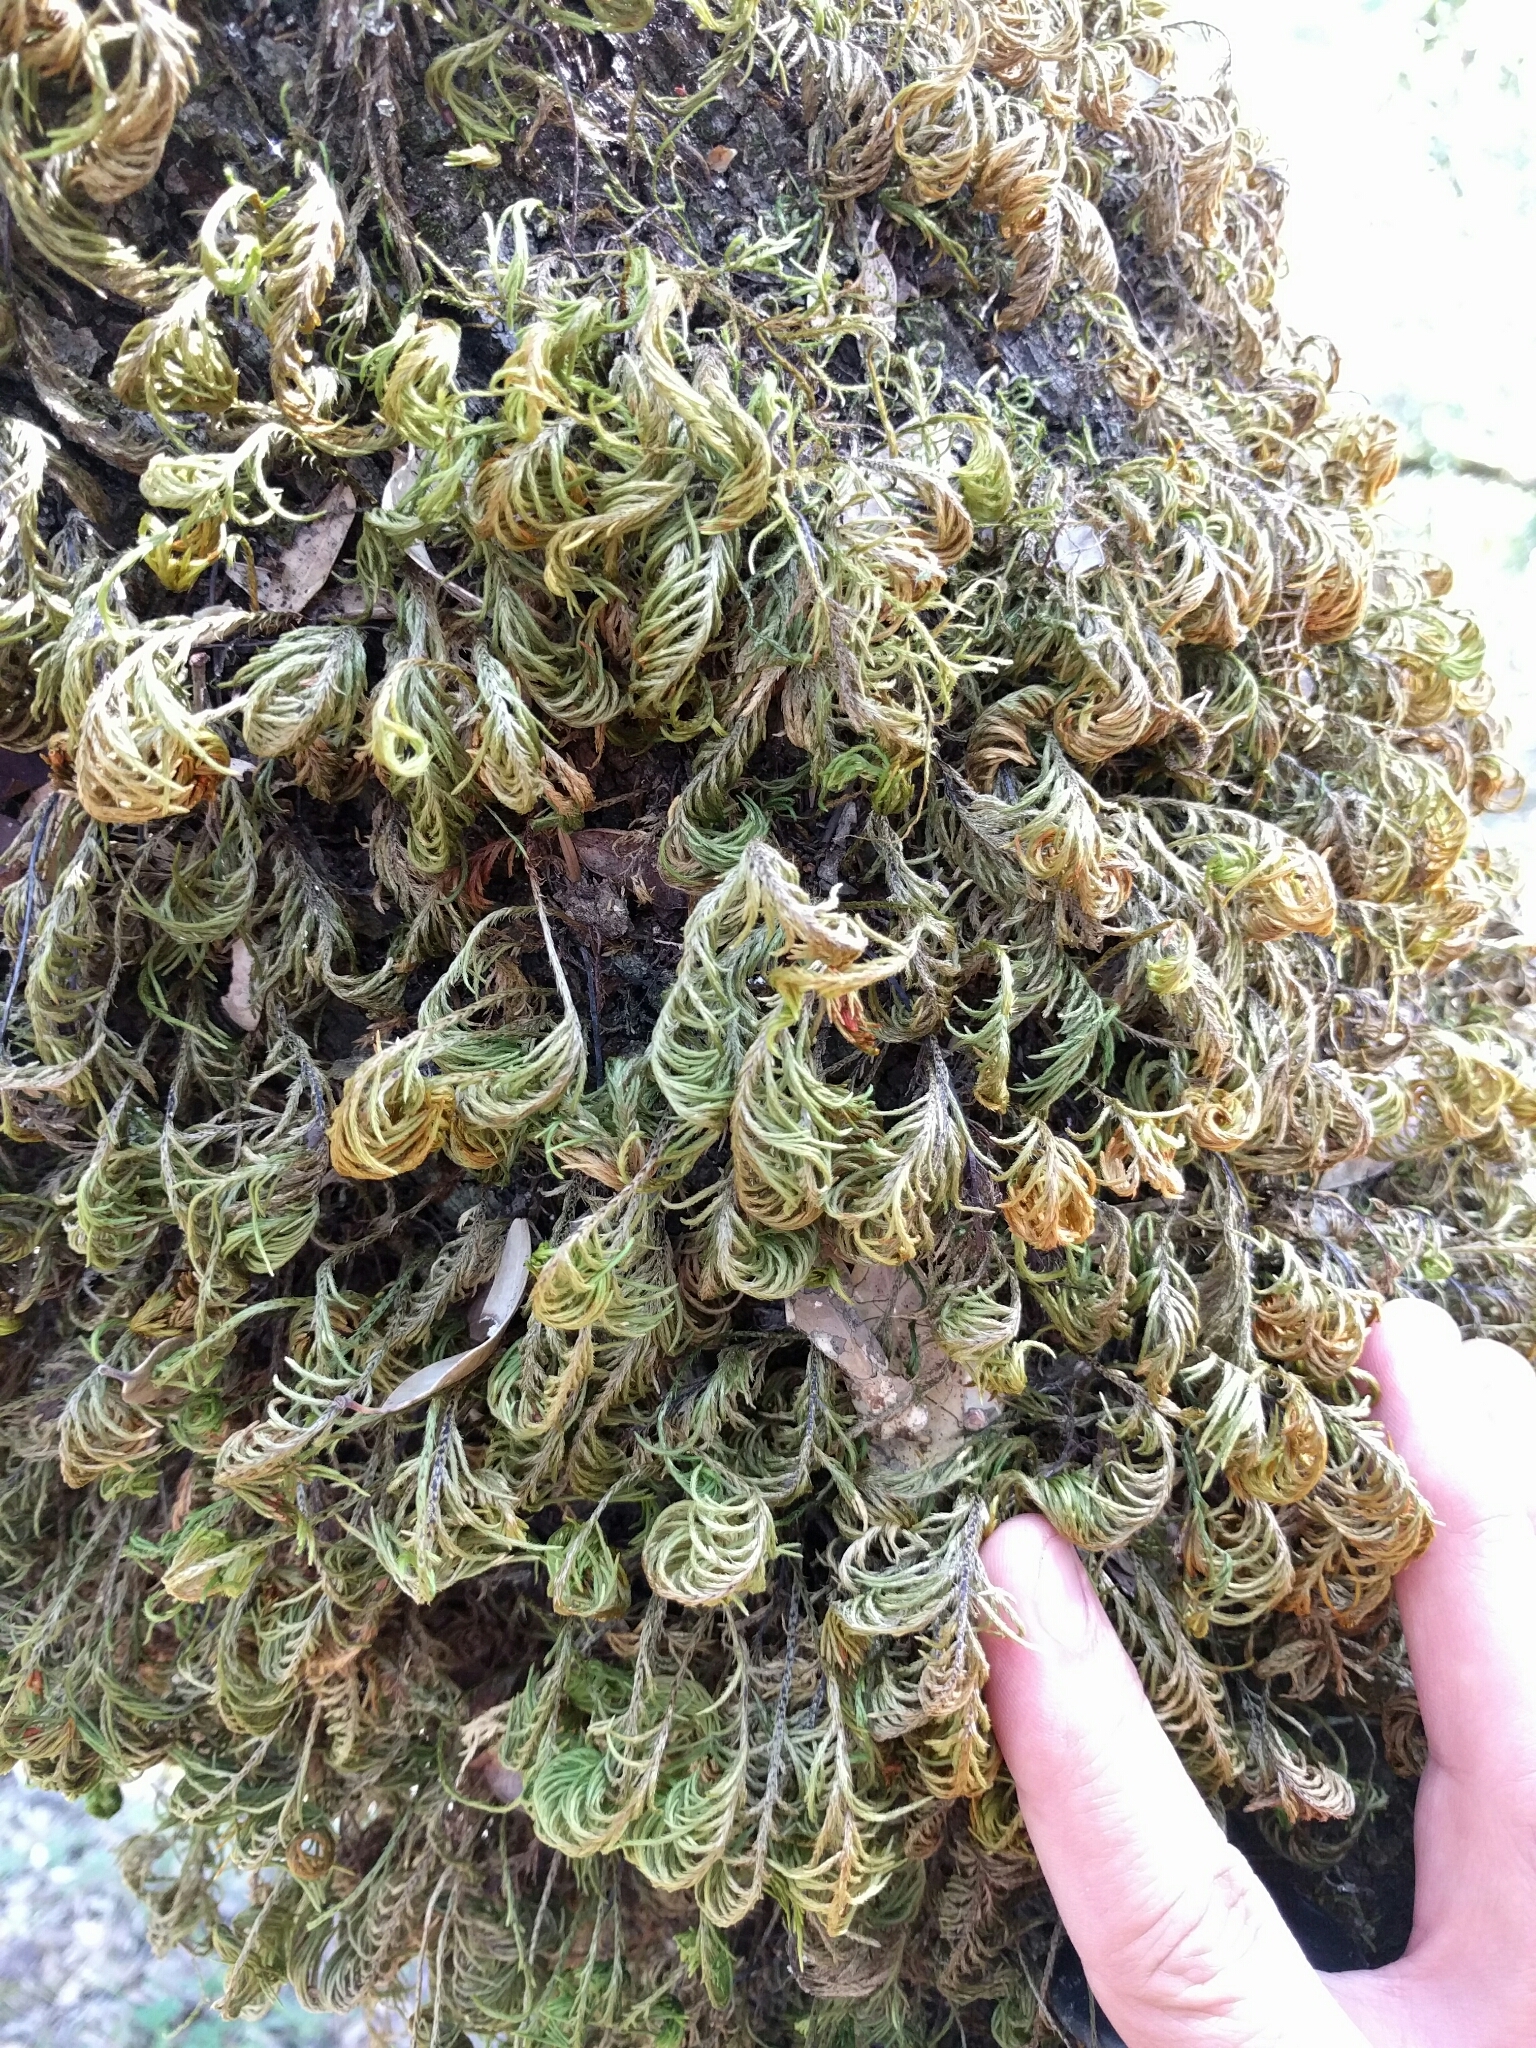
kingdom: Plantae
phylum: Bryophyta
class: Bryopsida
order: Hypnales
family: Cryphaeaceae
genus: Dendroalsia
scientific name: Dendroalsia abietina
